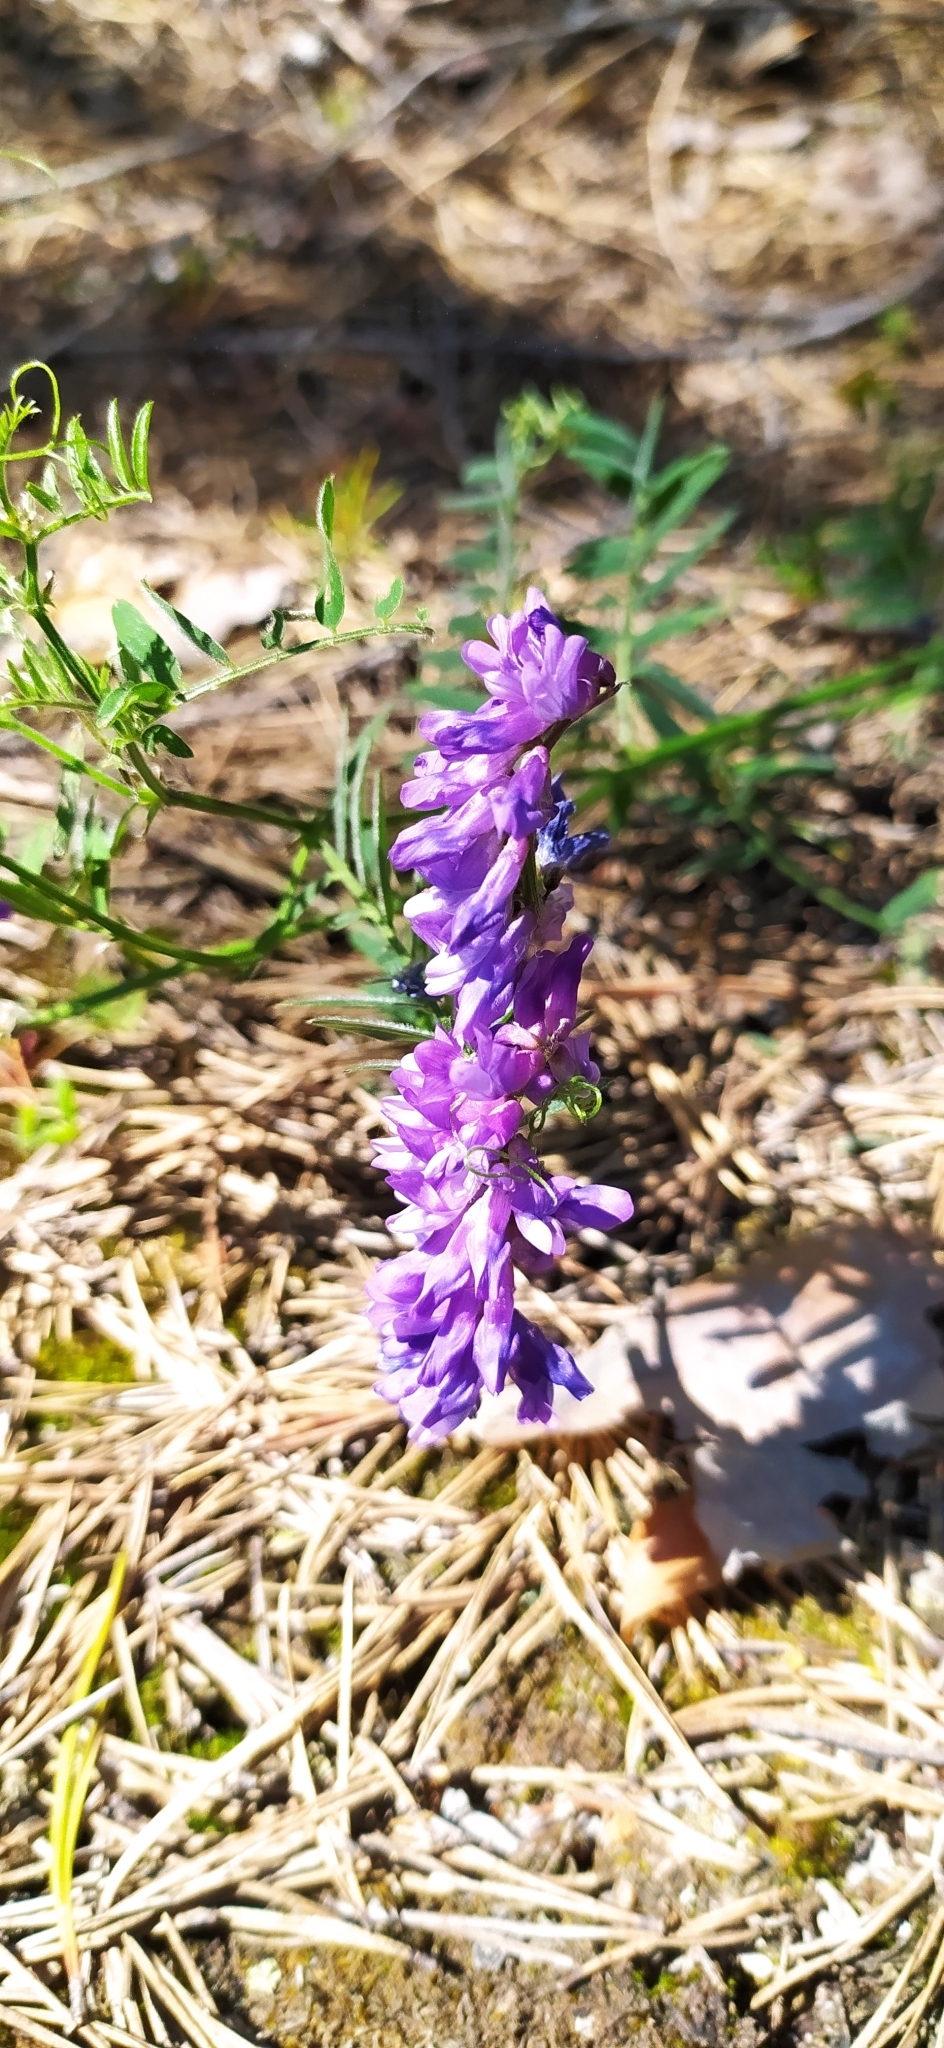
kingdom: Plantae
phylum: Tracheophyta
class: Magnoliopsida
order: Fabales
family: Fabaceae
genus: Vicia
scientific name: Vicia cracca
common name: Bird vetch
